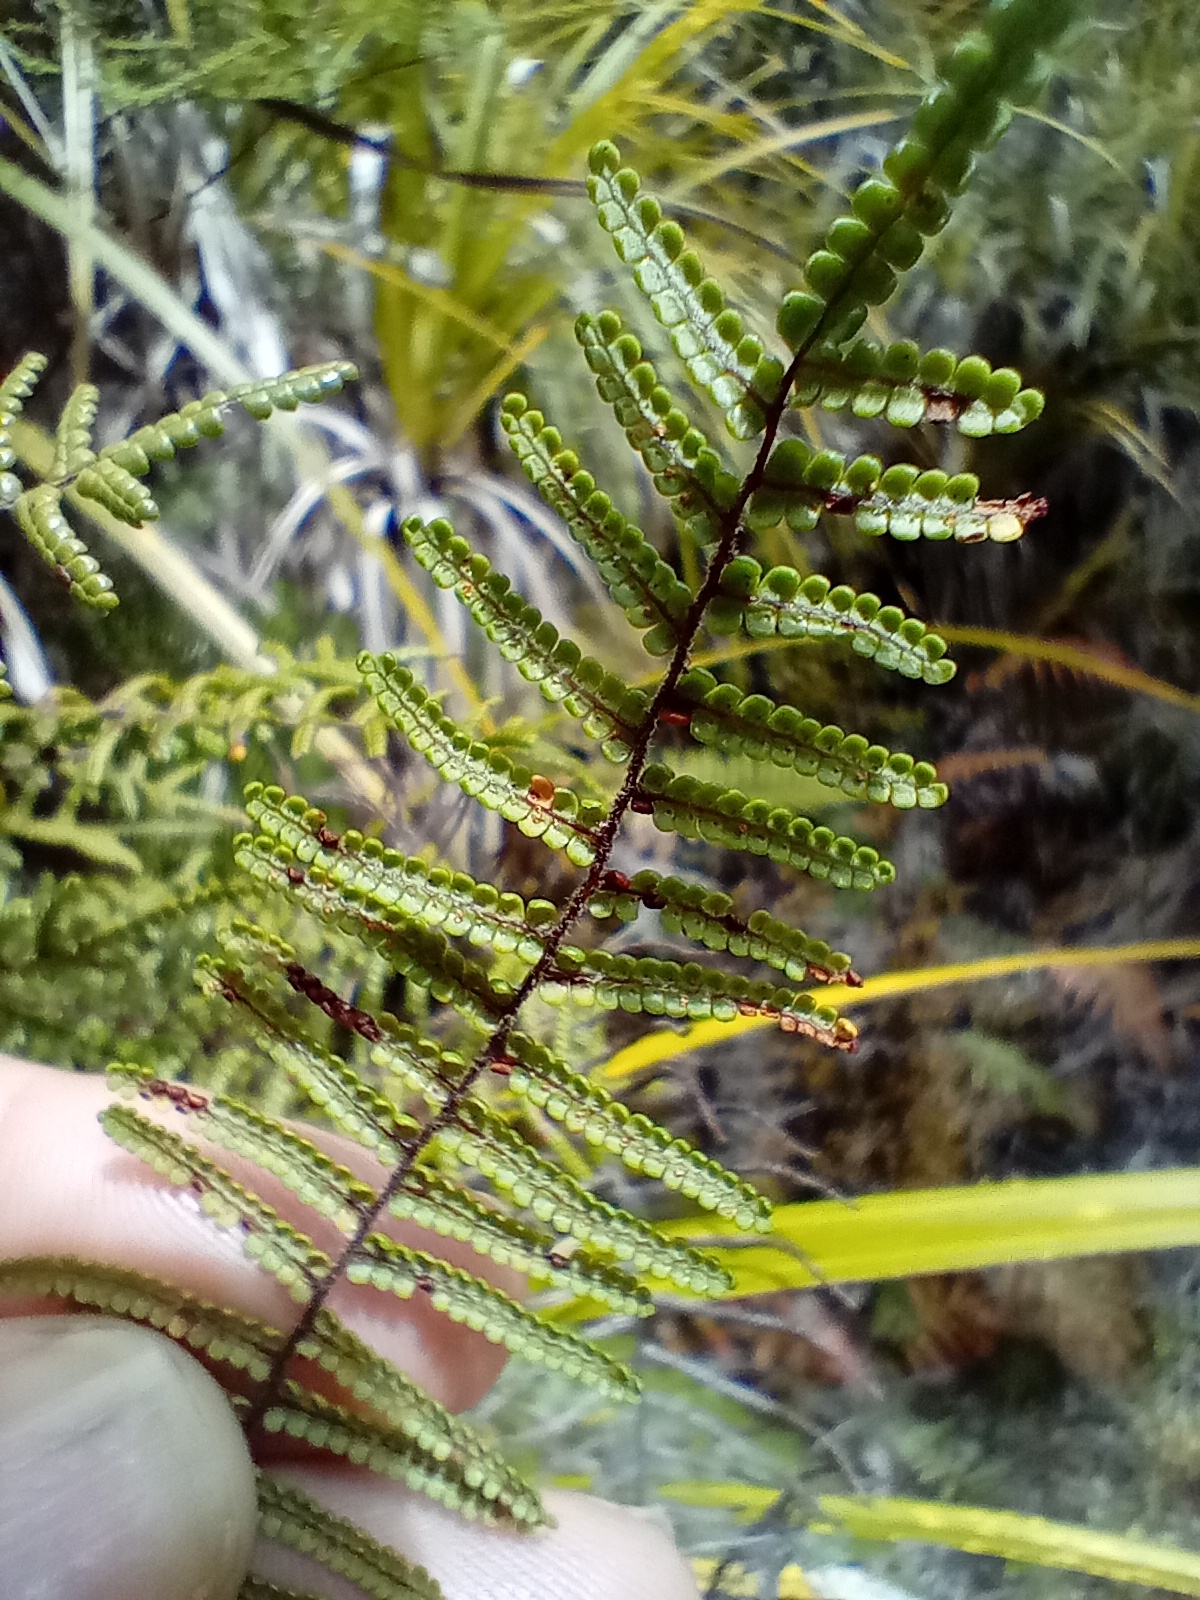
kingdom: Plantae
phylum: Tracheophyta
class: Polypodiopsida
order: Gleicheniales
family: Gleicheniaceae
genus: Gleichenia
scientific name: Gleichenia inclusisora
